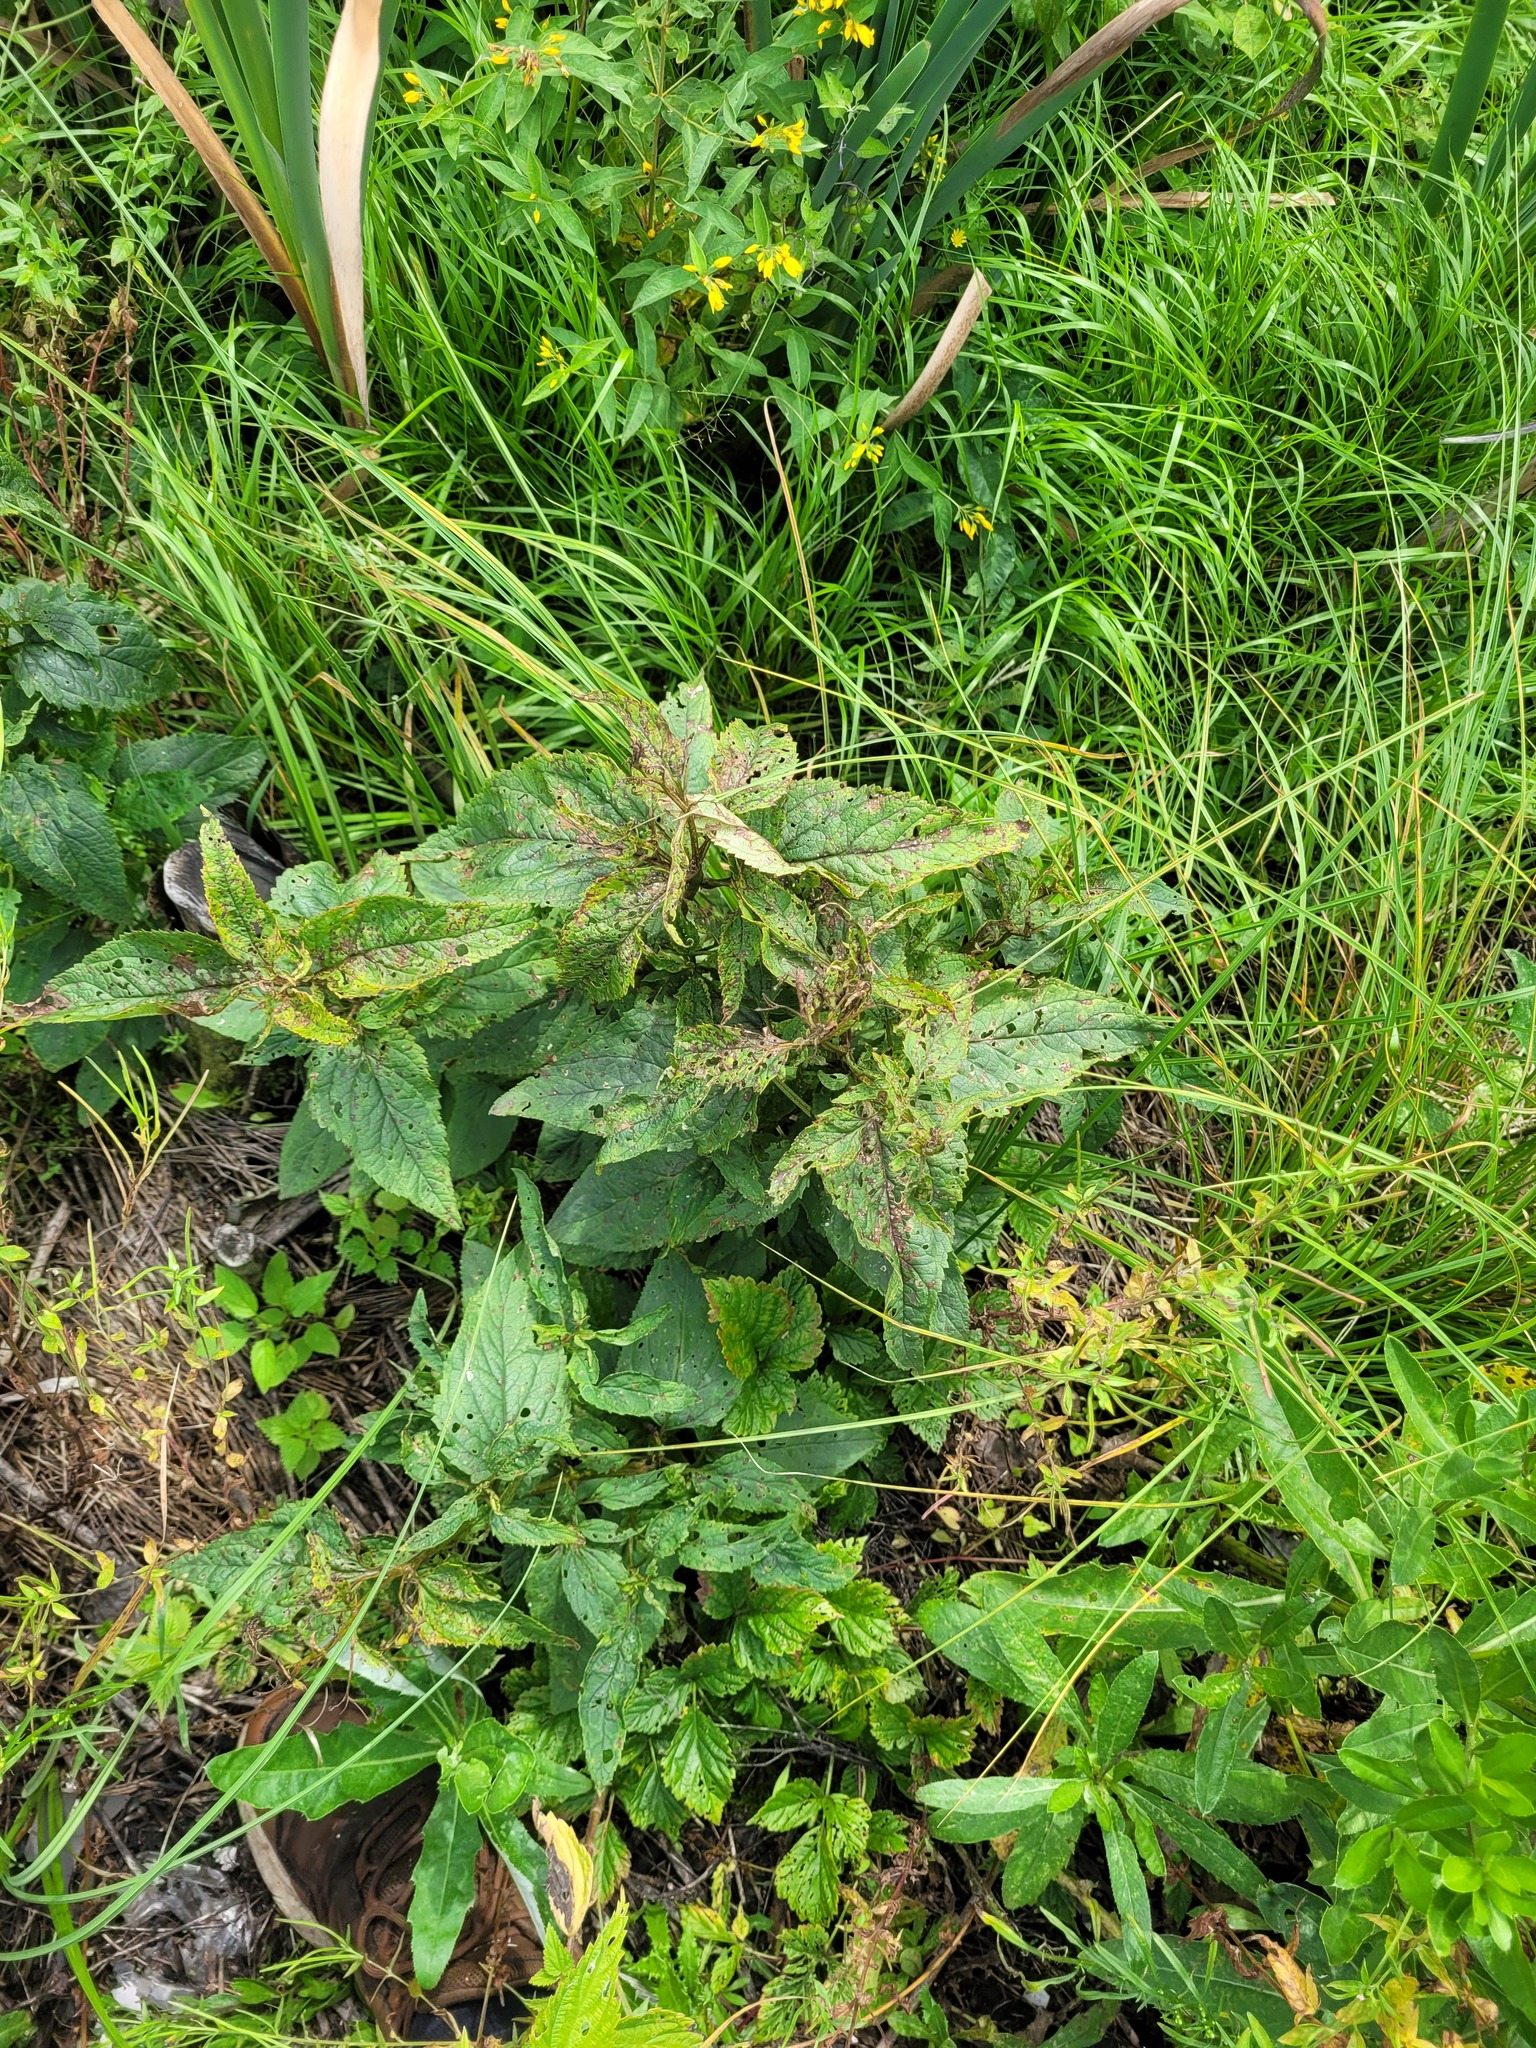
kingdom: Plantae
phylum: Tracheophyta
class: Magnoliopsida
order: Lamiales
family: Scrophulariaceae
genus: Scrophularia
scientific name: Scrophularia nodosa
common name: Common figwort
